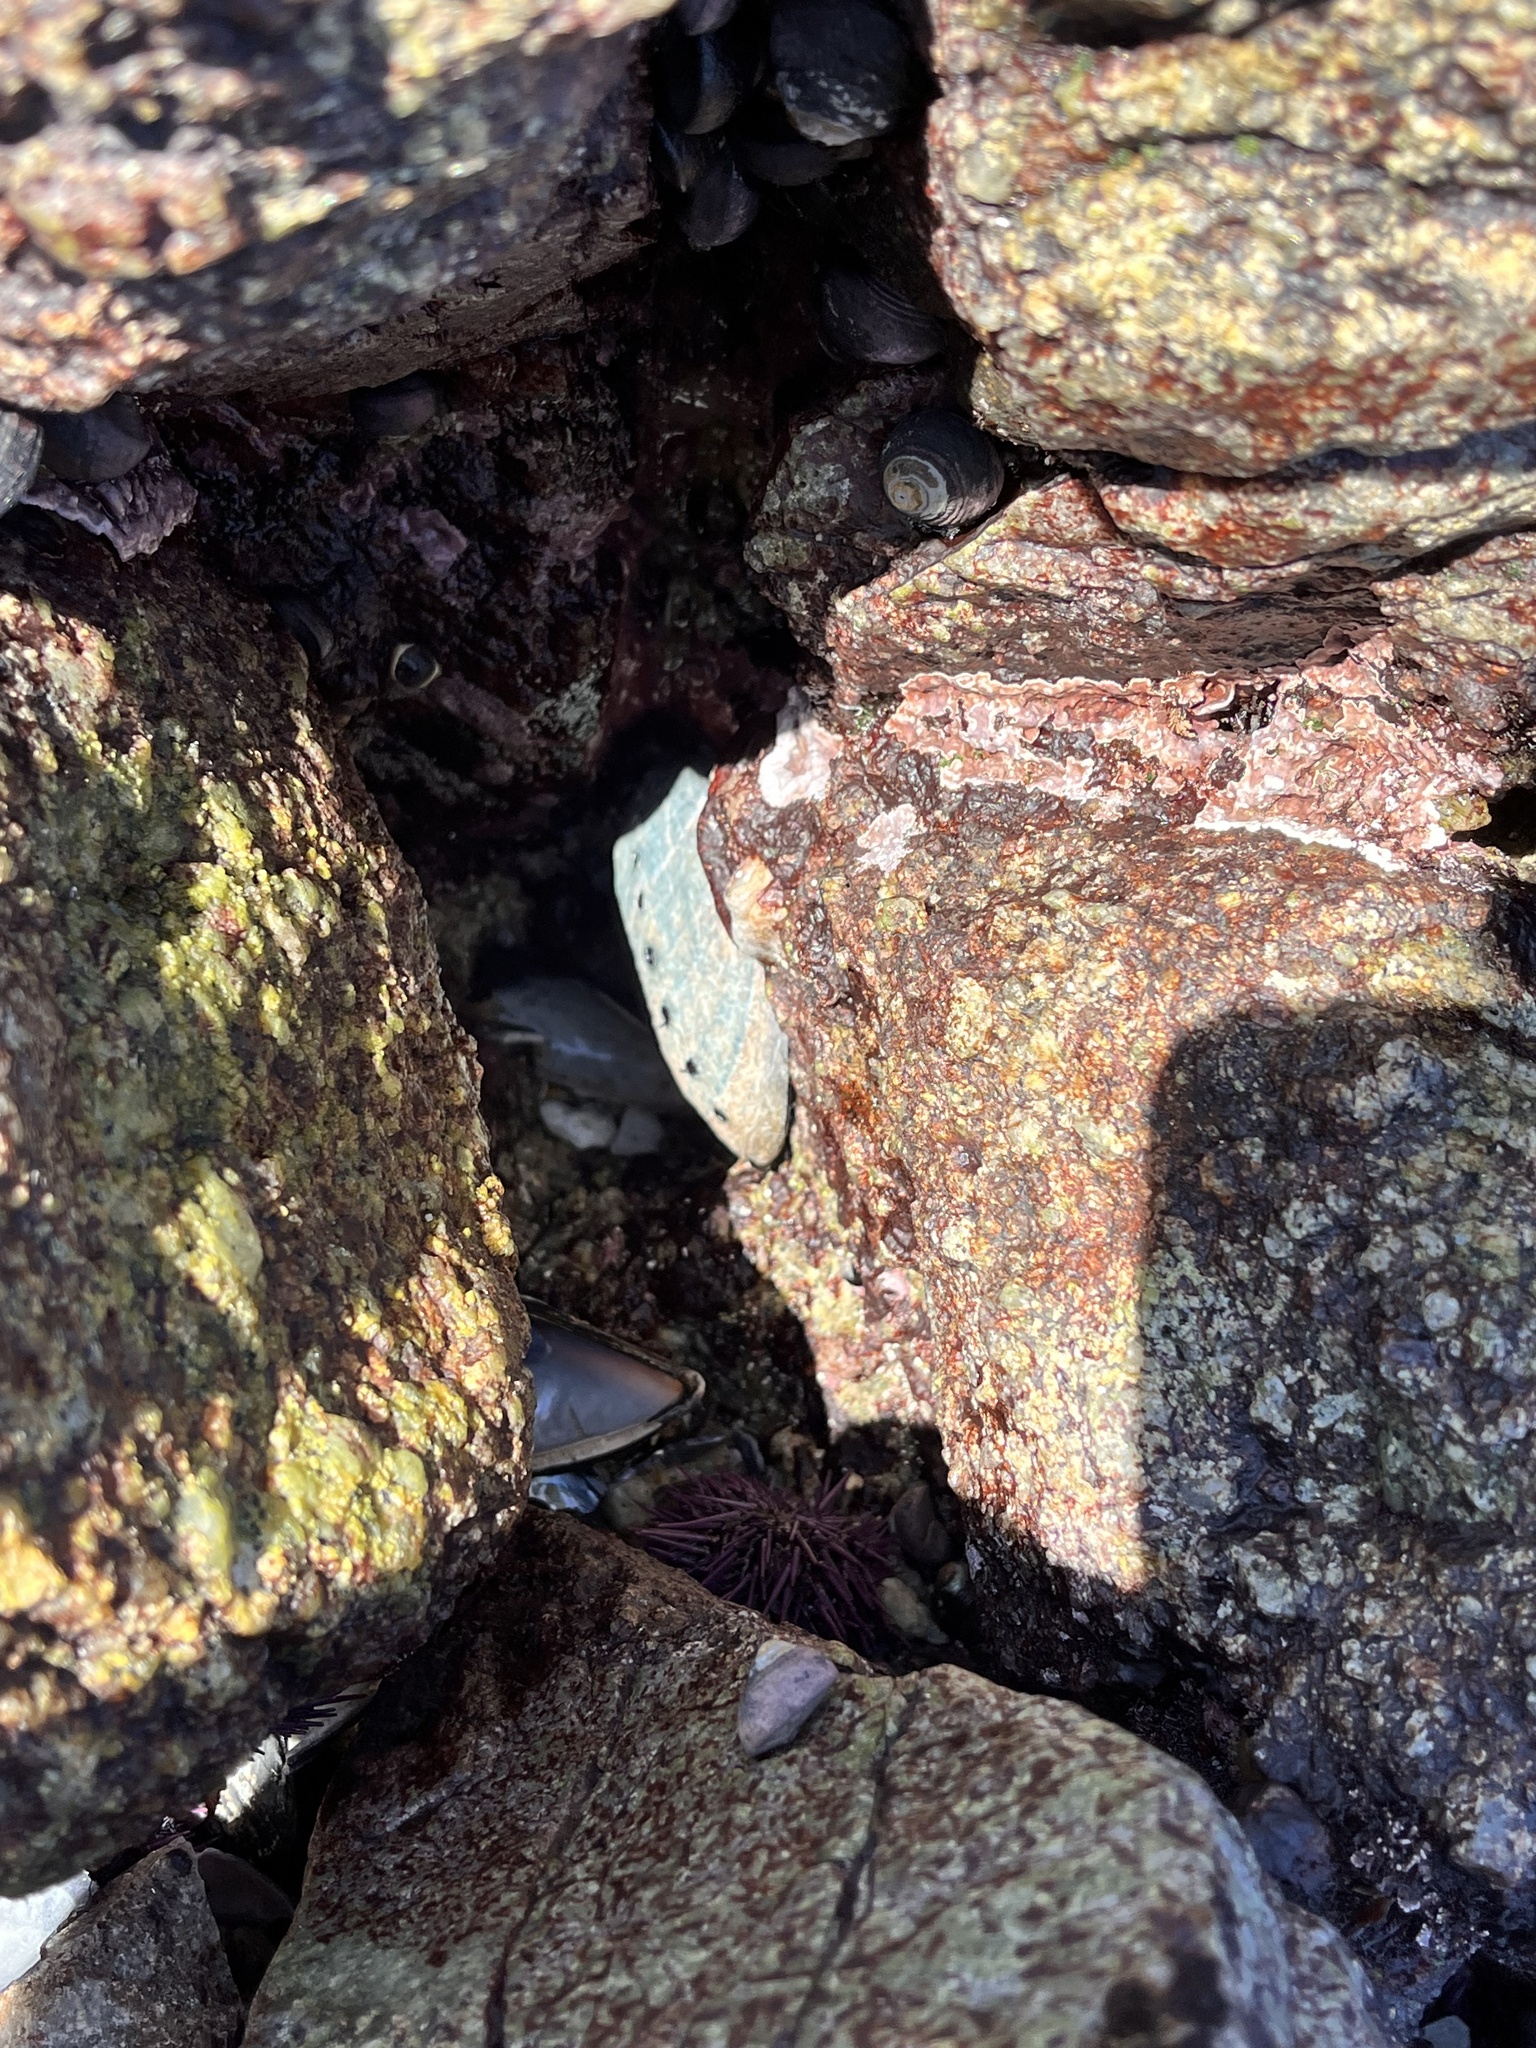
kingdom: Animalia
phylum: Mollusca
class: Gastropoda
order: Lepetellida
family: Haliotidae
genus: Haliotis
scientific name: Haliotis cracherodii
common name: Black abalone
